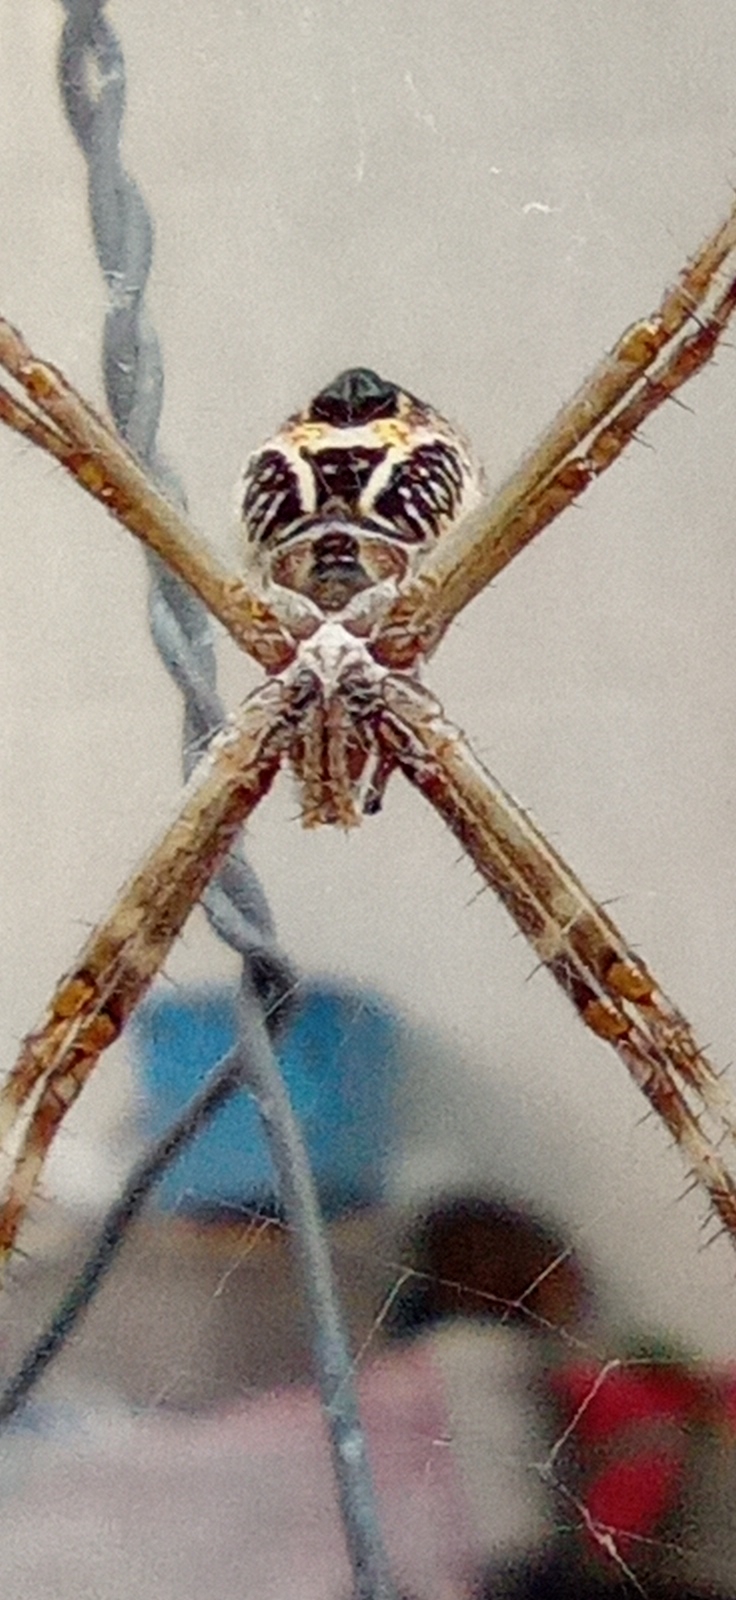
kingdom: Animalia
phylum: Arthropoda
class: Arachnida
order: Araneae
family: Araneidae
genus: Argiope
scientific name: Argiope argentata
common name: Orb weavers
